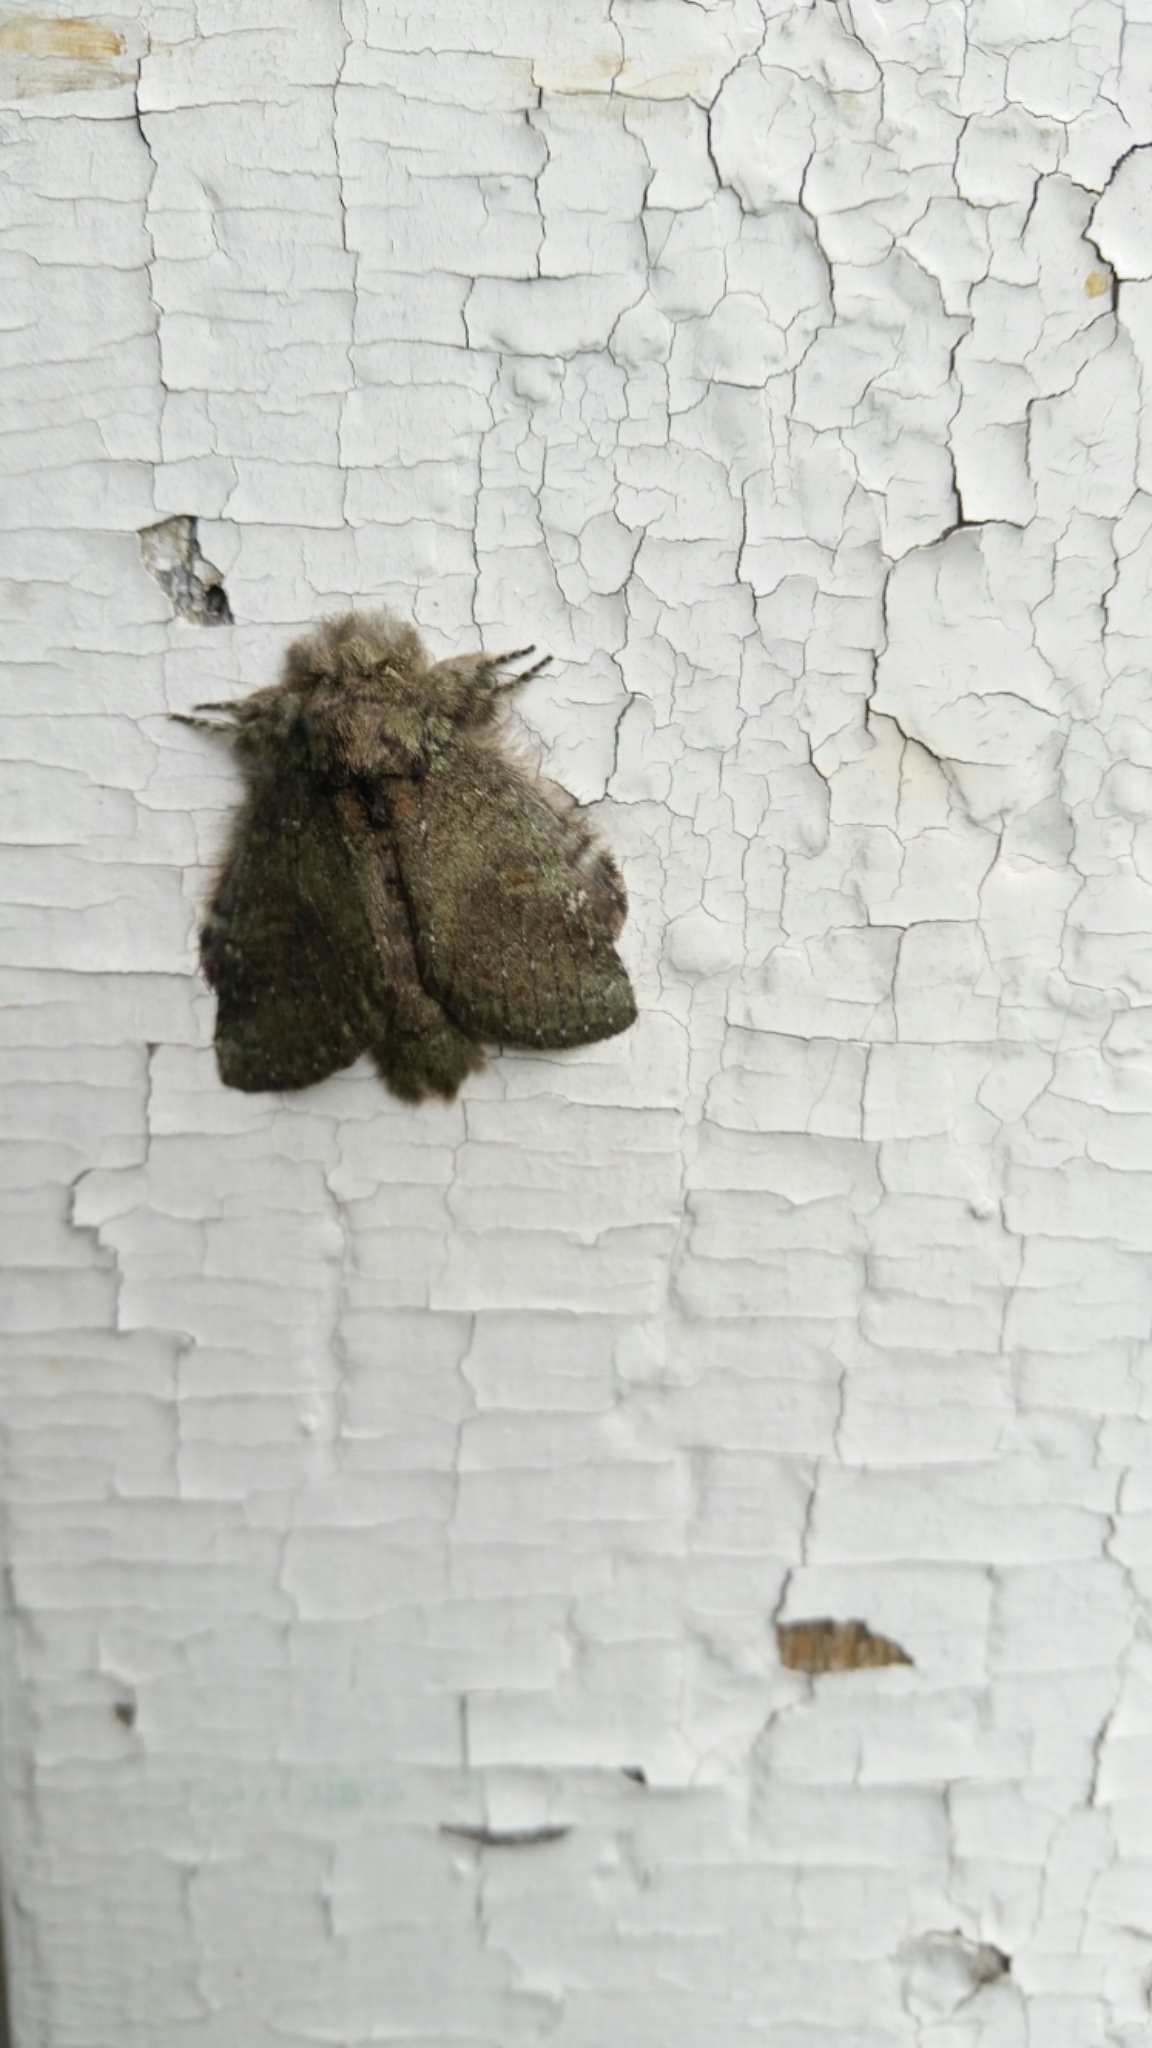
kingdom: Animalia
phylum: Arthropoda
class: Insecta
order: Lepidoptera
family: Notodontidae
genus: Disphragis
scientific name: Disphragis Cecrita guttivitta
